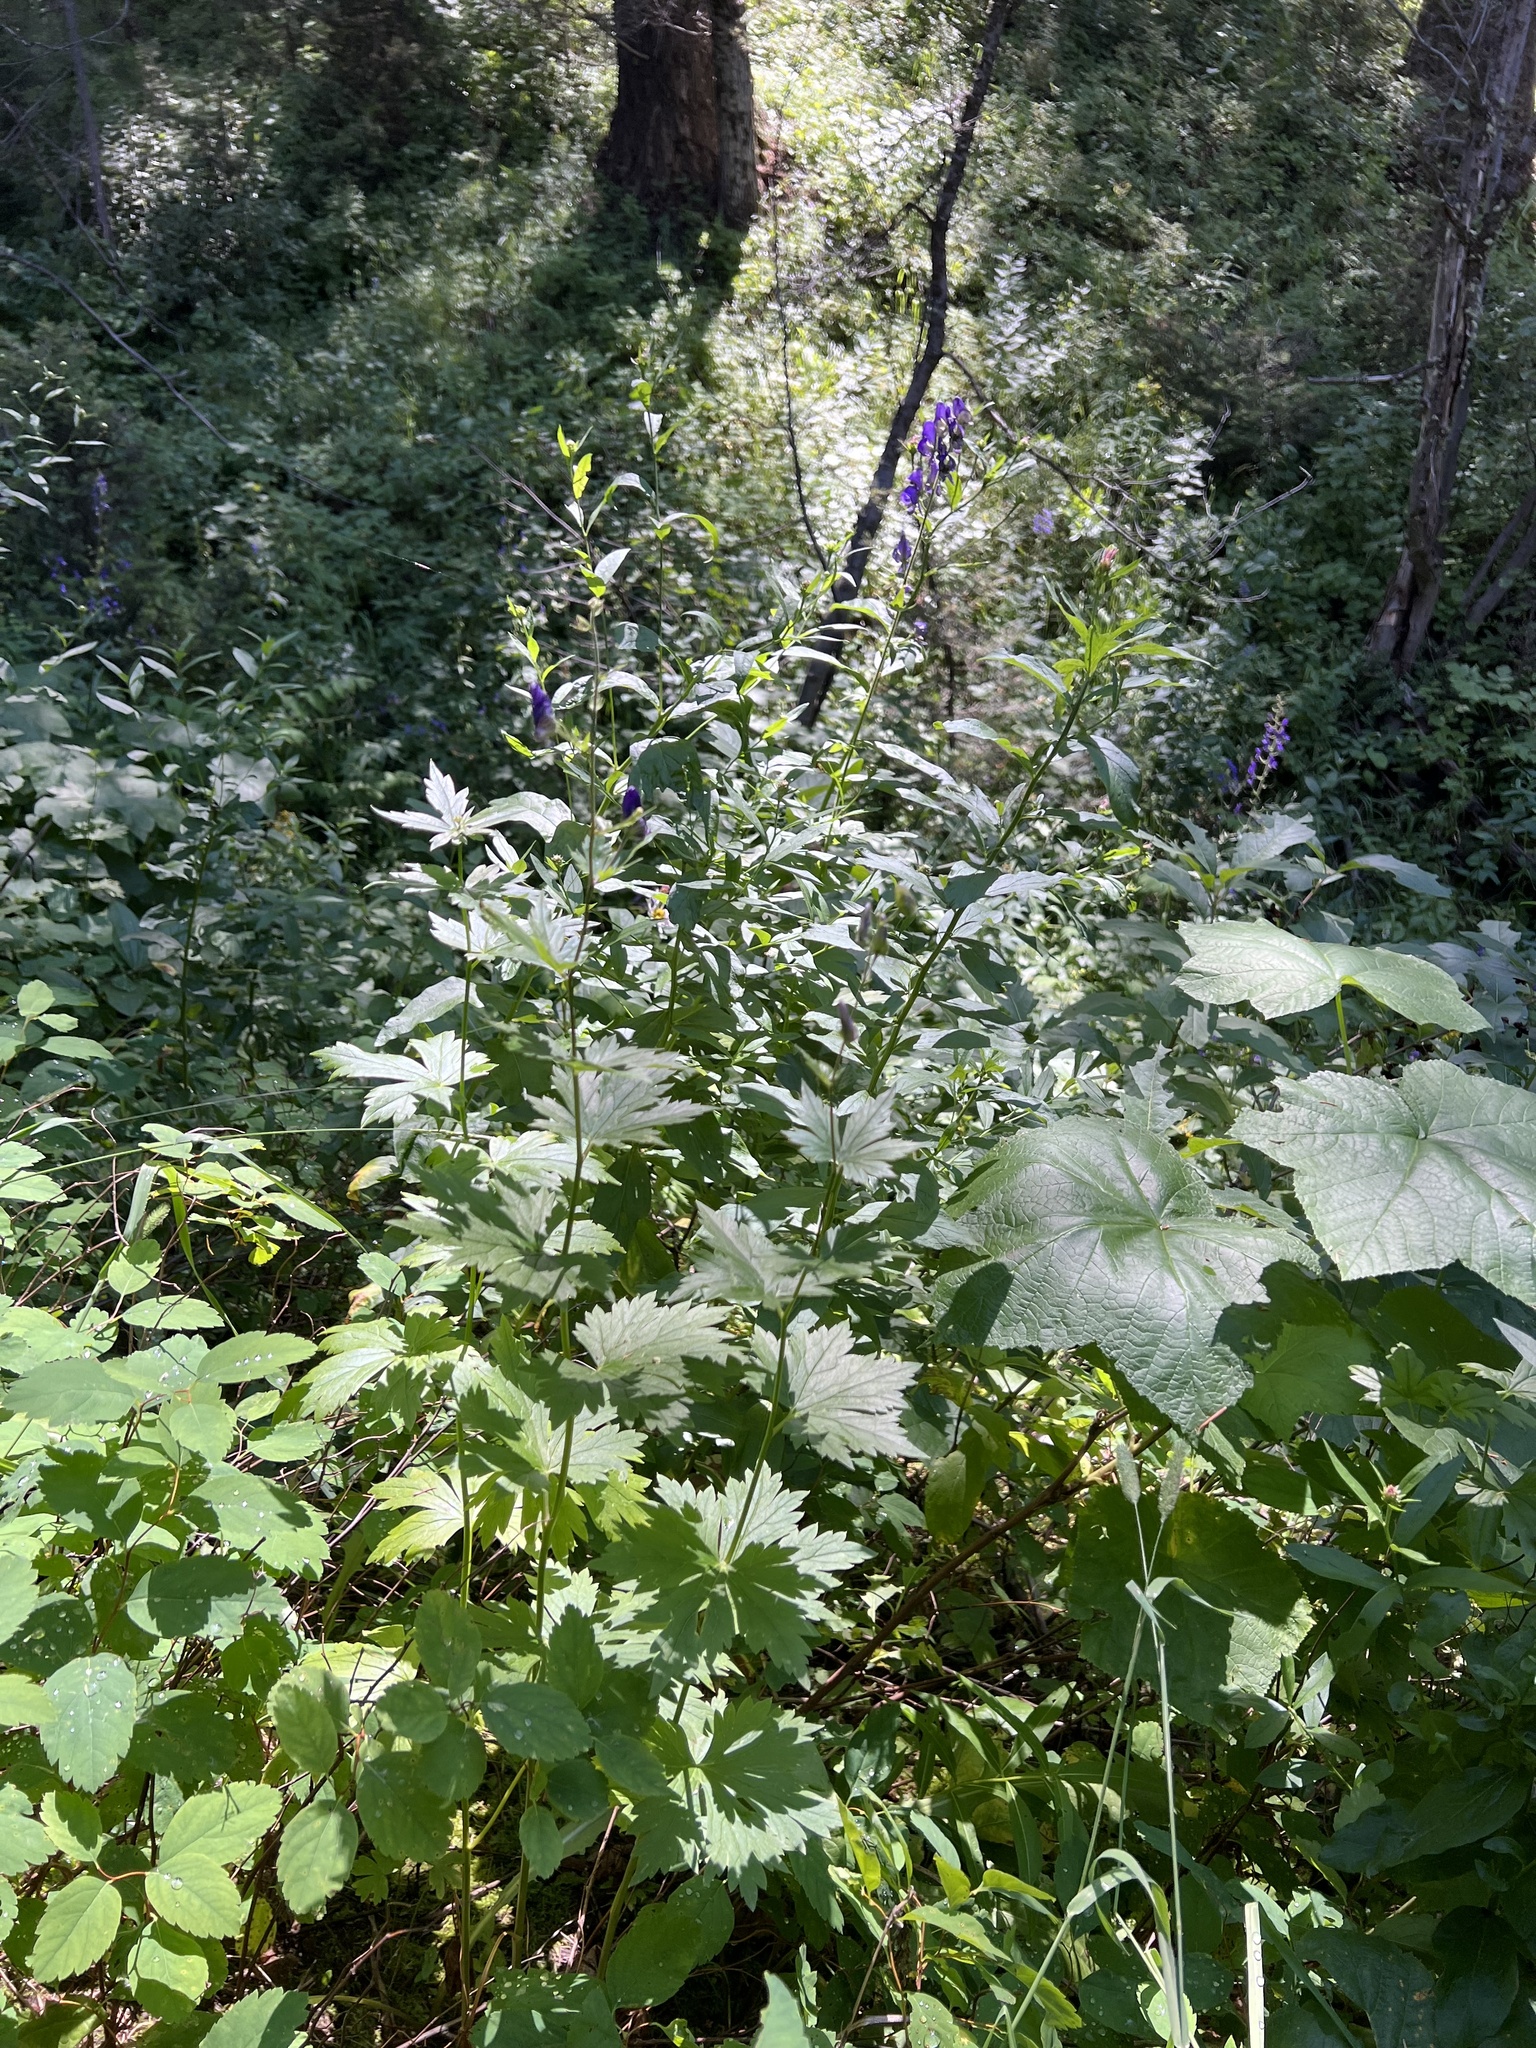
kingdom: Plantae
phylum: Tracheophyta
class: Magnoliopsida
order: Ranunculales
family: Ranunculaceae
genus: Aconitum
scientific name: Aconitum columbianum
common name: Columbia aconite
